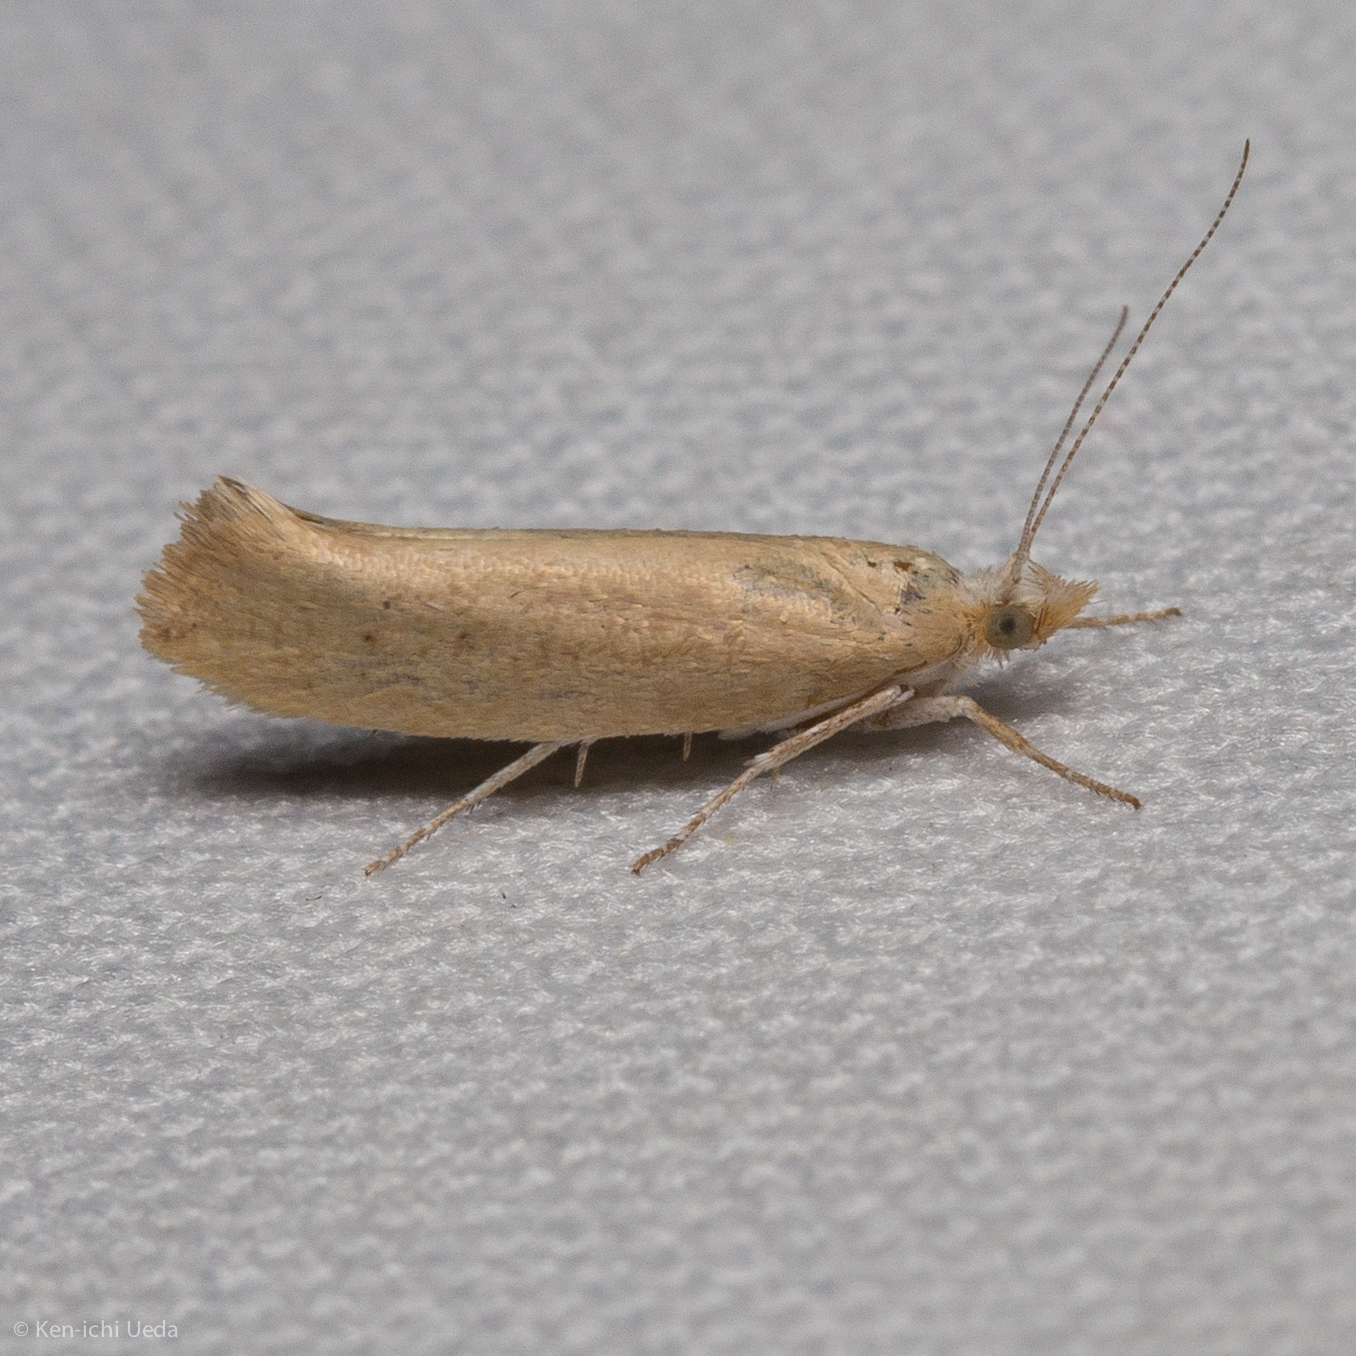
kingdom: Animalia
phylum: Arthropoda
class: Insecta
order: Lepidoptera
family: Ypsolophidae
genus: Ypsolopha
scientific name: Ypsolopha cervella
